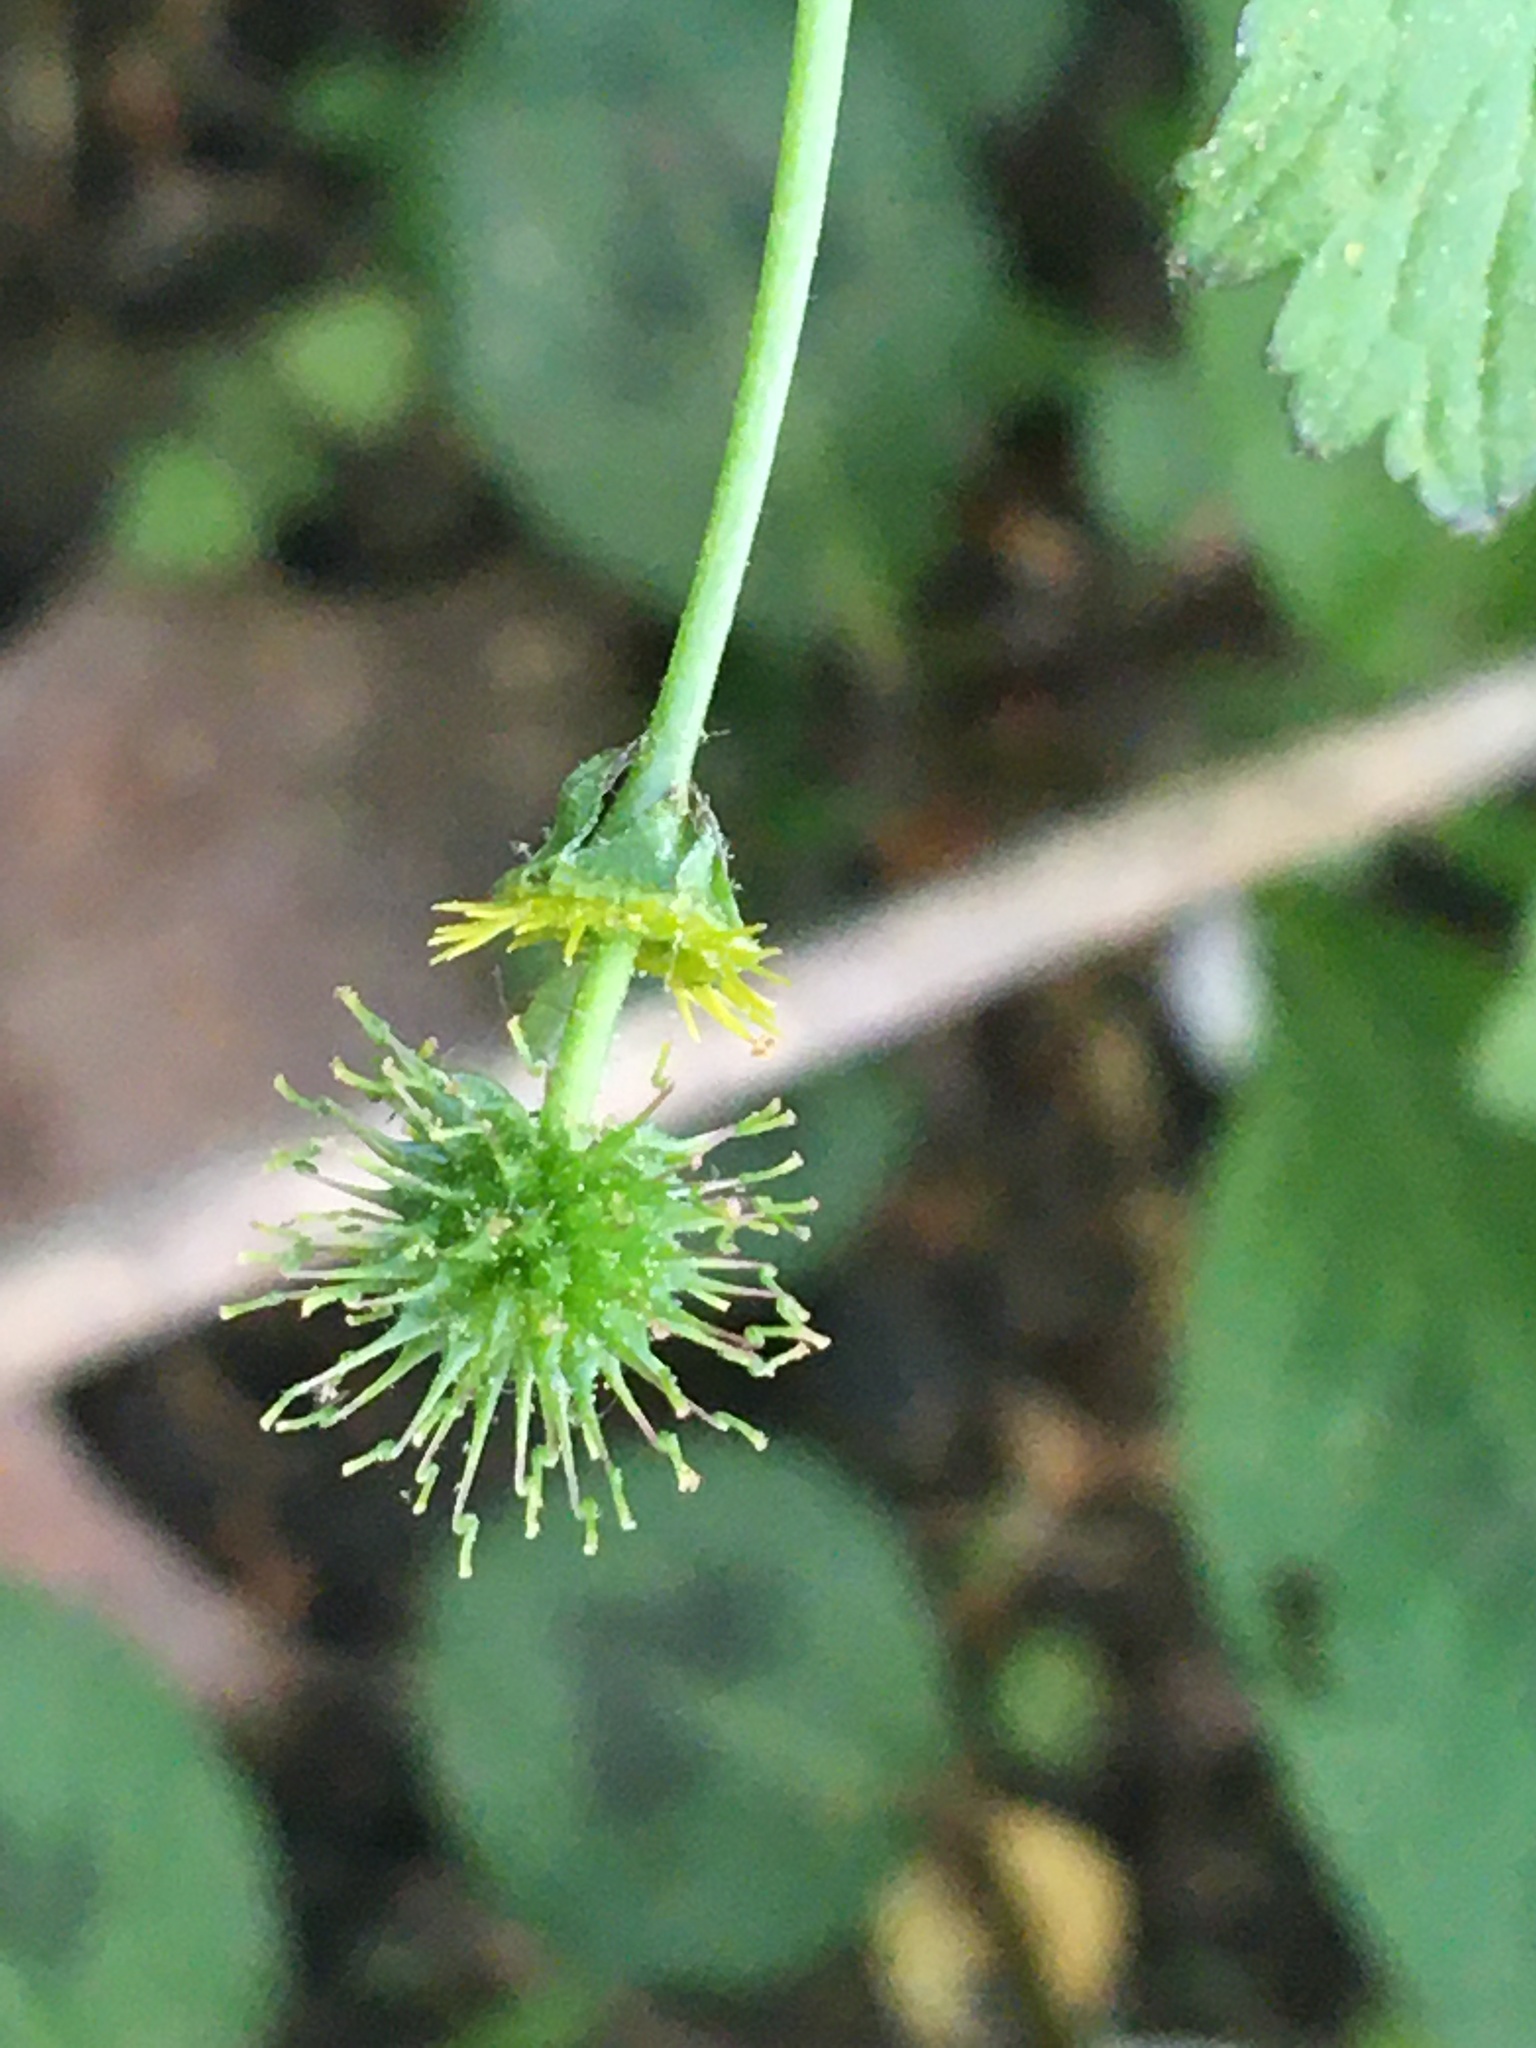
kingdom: Plantae
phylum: Tracheophyta
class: Magnoliopsida
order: Rosales
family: Rosaceae
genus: Geum
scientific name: Geum vernum
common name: Spring avens
